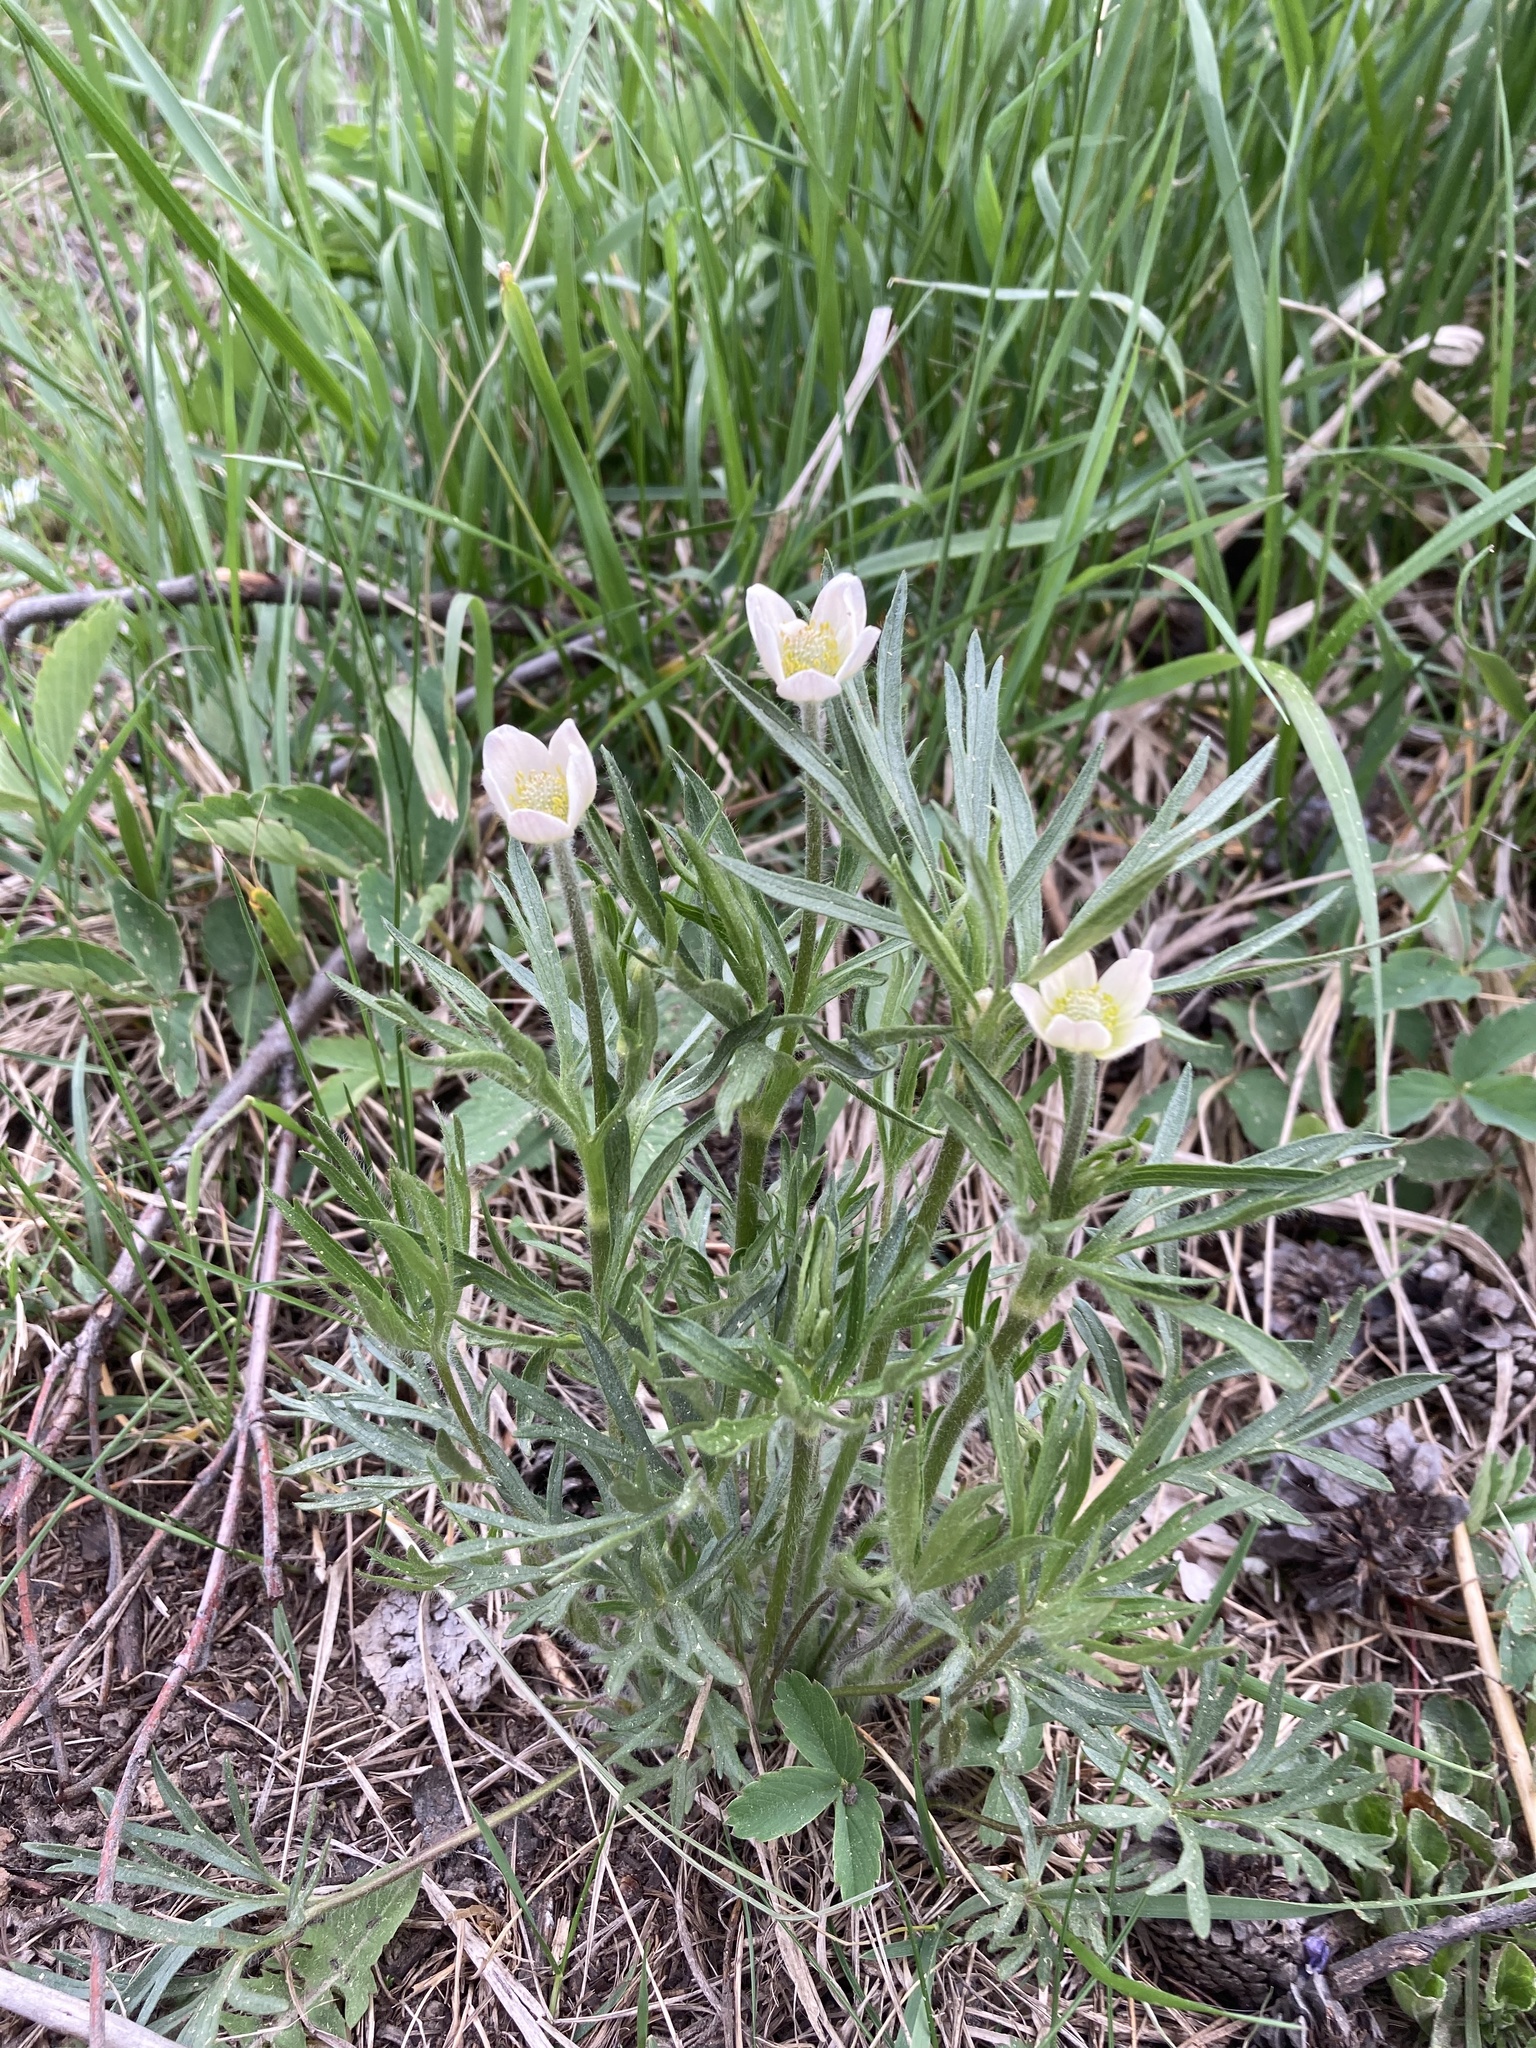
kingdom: Plantae
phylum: Tracheophyta
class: Magnoliopsida
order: Ranunculales
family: Ranunculaceae
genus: Anemone
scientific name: Anemone multifida
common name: Bird's-foot anemone
